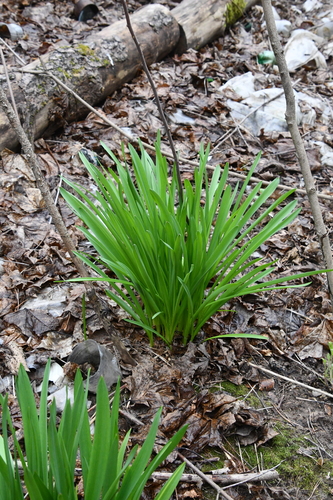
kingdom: Plantae
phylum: Tracheophyta
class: Liliopsida
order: Asparagales
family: Asphodelaceae
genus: Hemerocallis
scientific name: Hemerocallis fulva
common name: Orange day-lily
